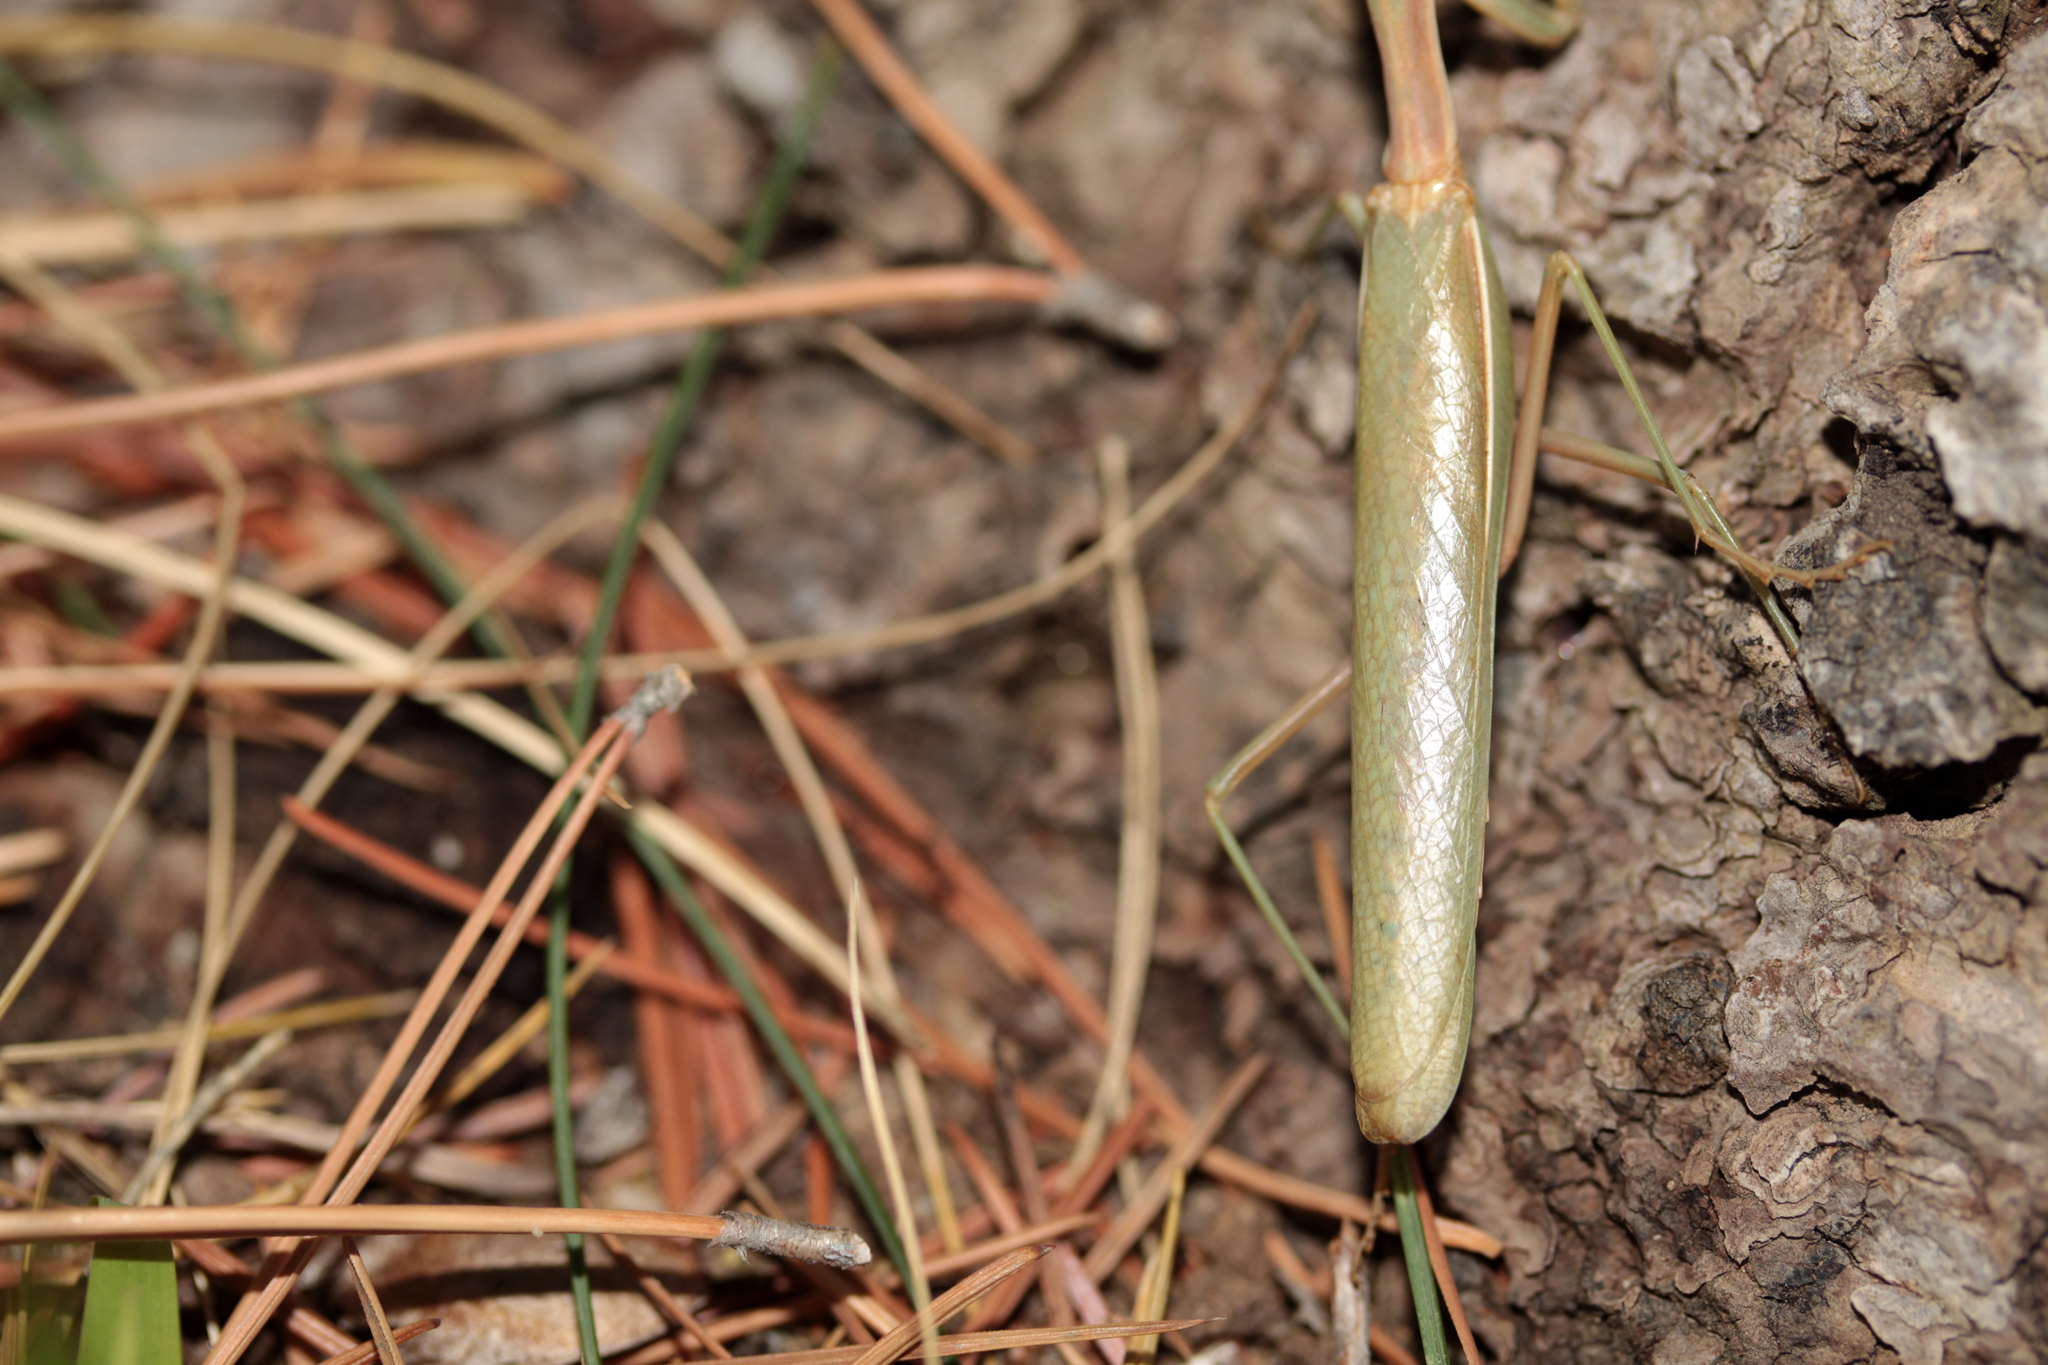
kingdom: Animalia
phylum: Arthropoda
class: Insecta
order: Mantodea
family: Eremiaphilidae
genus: Iris
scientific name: Iris oratoria
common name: Mediterranean mantis
